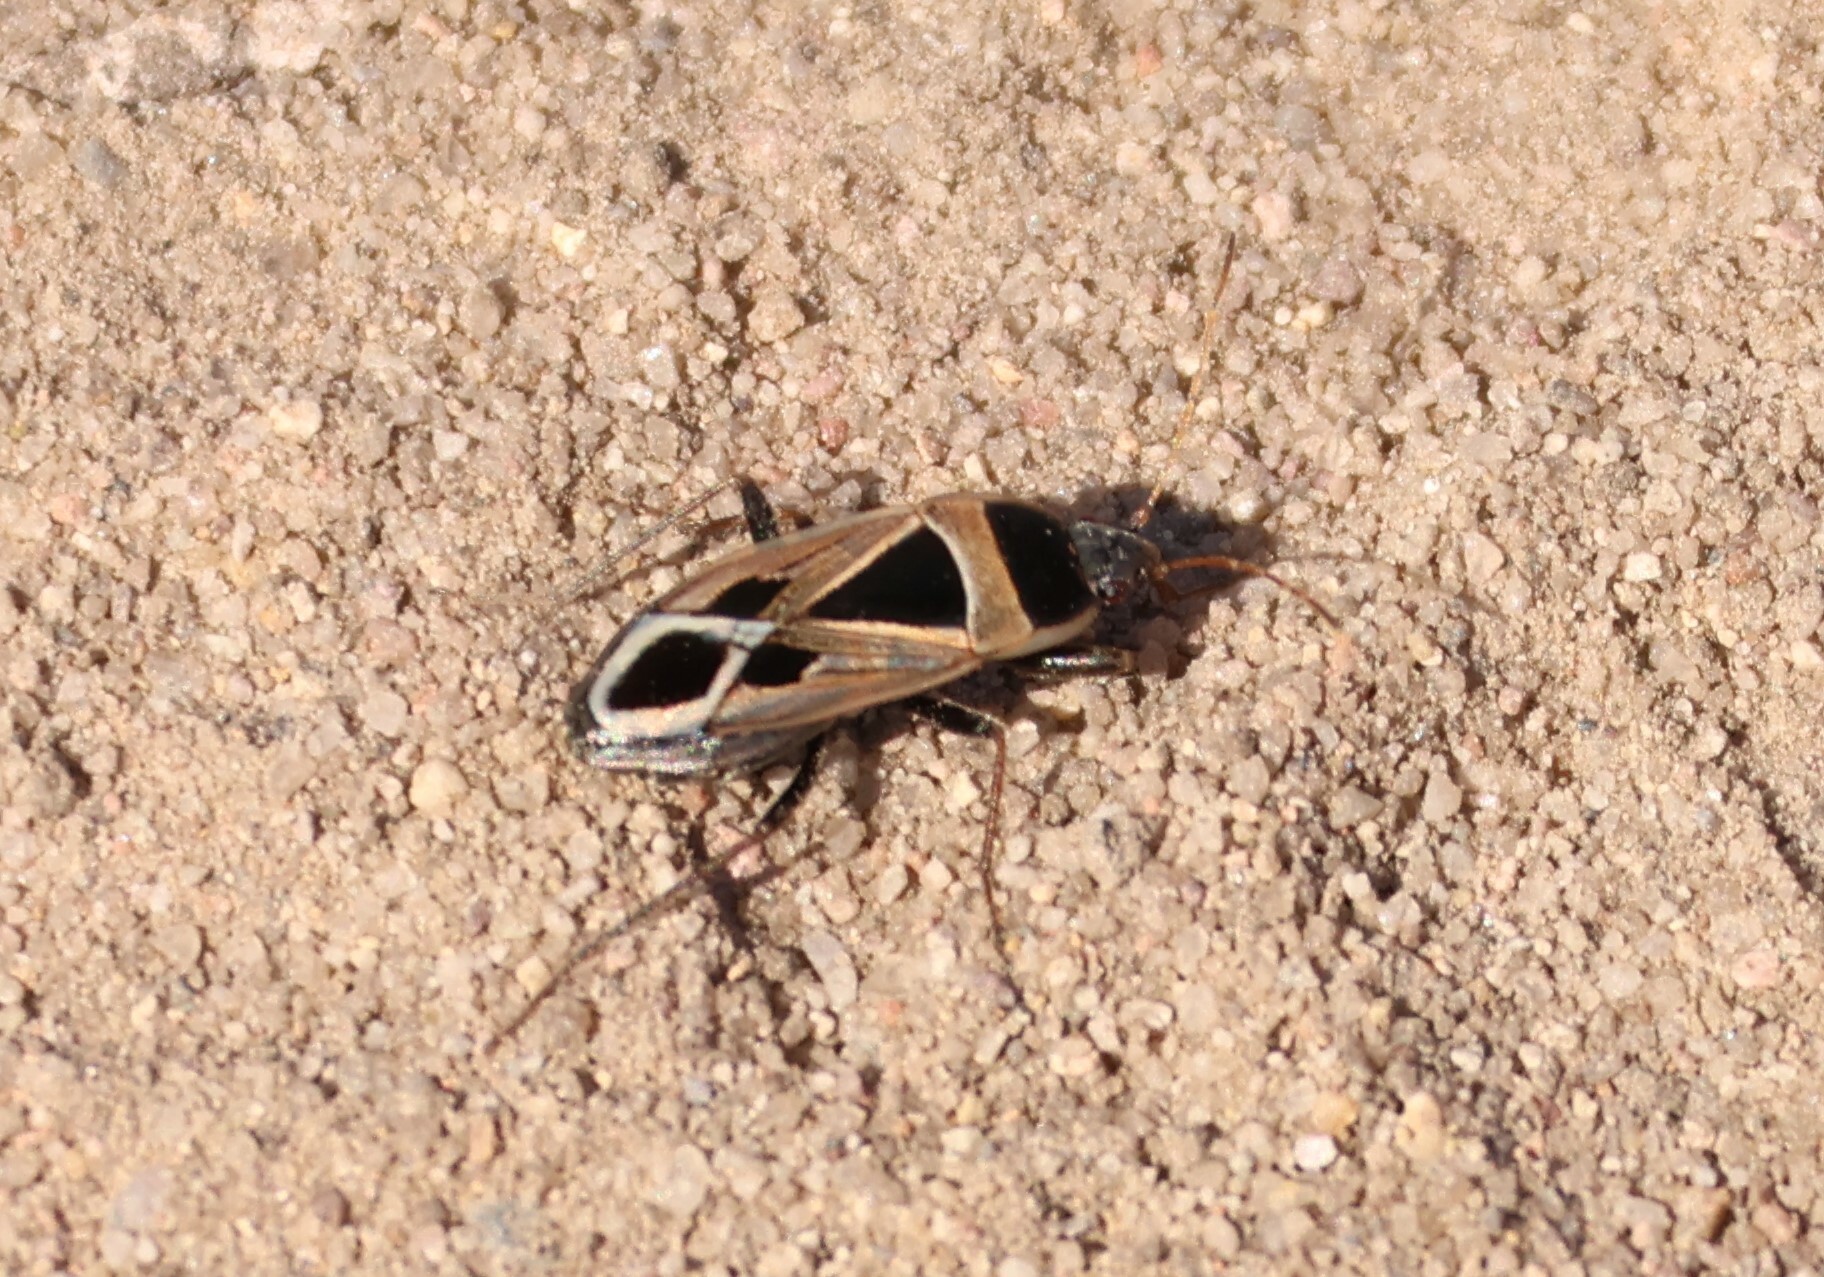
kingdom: Animalia
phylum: Arthropoda
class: Insecta
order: Hemiptera
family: Rhyparochromidae
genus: Xanthochilus
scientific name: Xanthochilus saturnius
